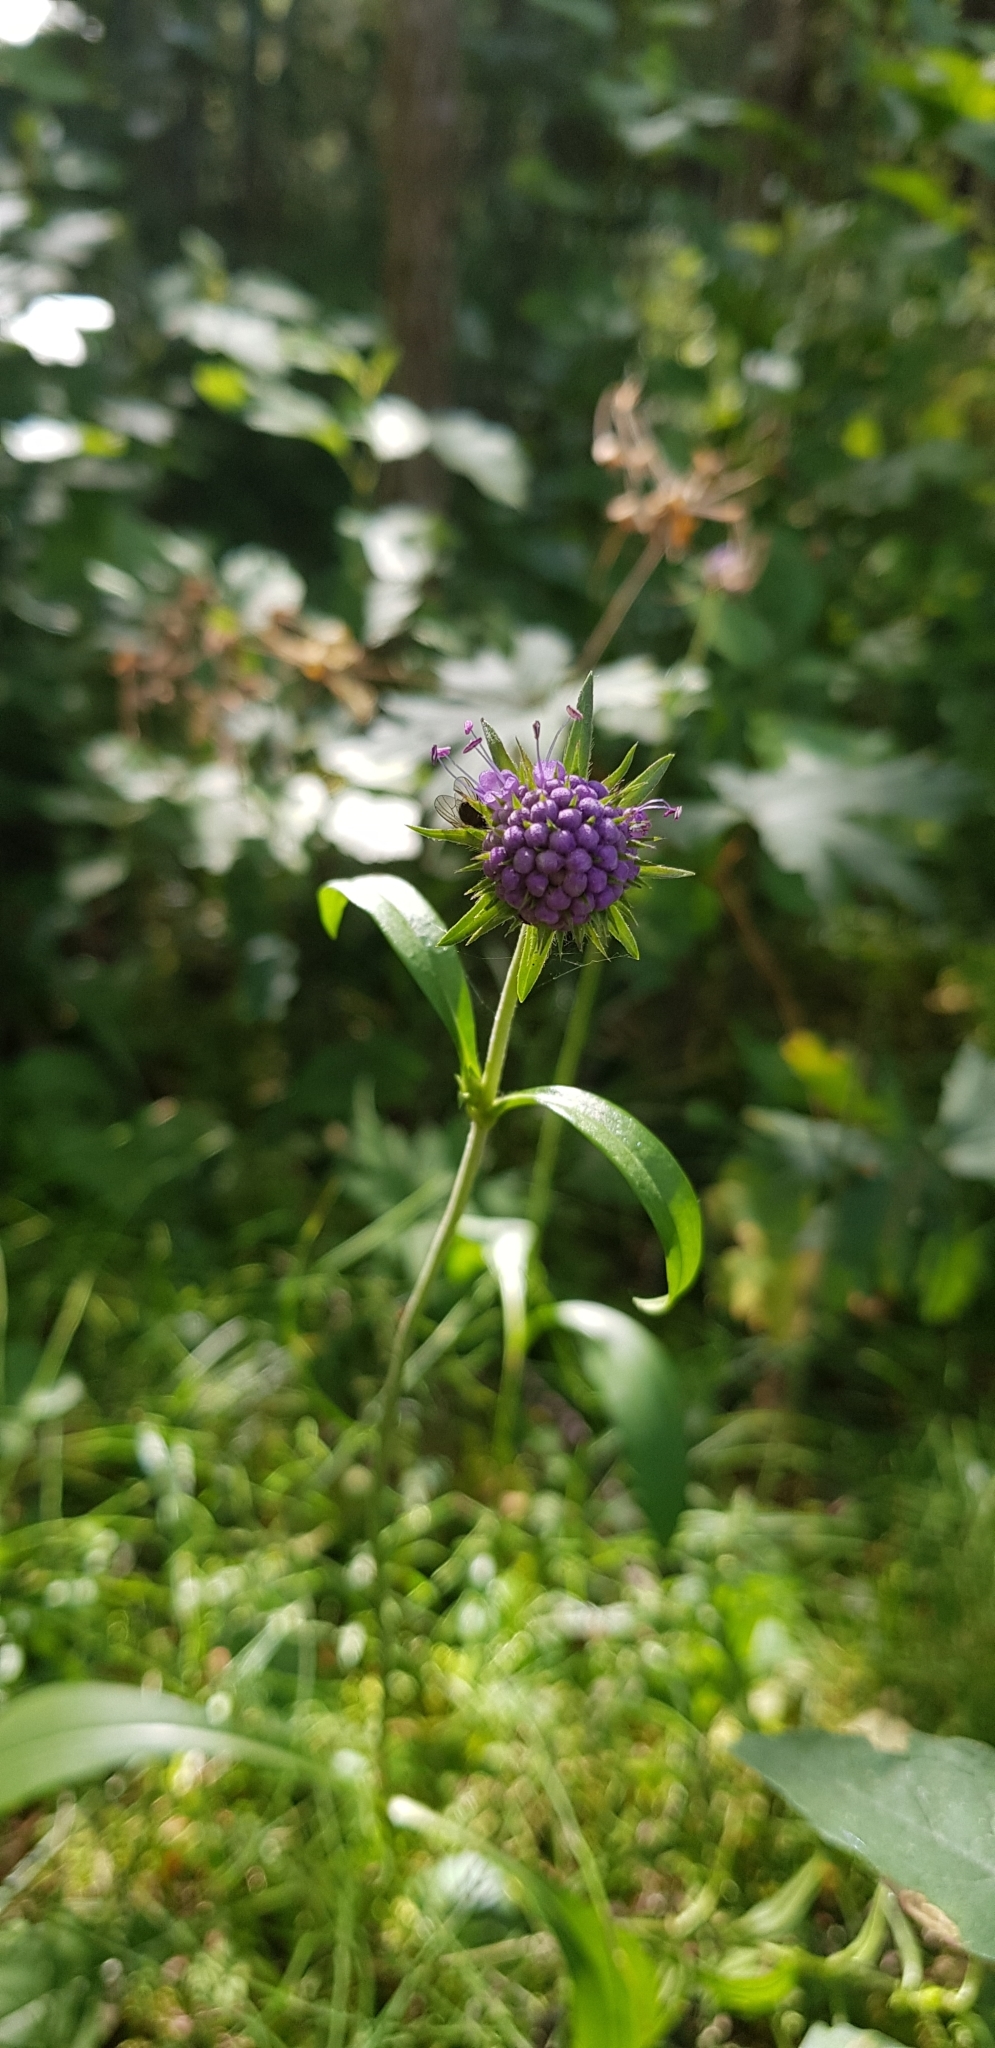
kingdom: Plantae
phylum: Tracheophyta
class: Magnoliopsida
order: Dipsacales
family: Caprifoliaceae
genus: Succisa
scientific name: Succisa pratensis
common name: Devil's-bit
